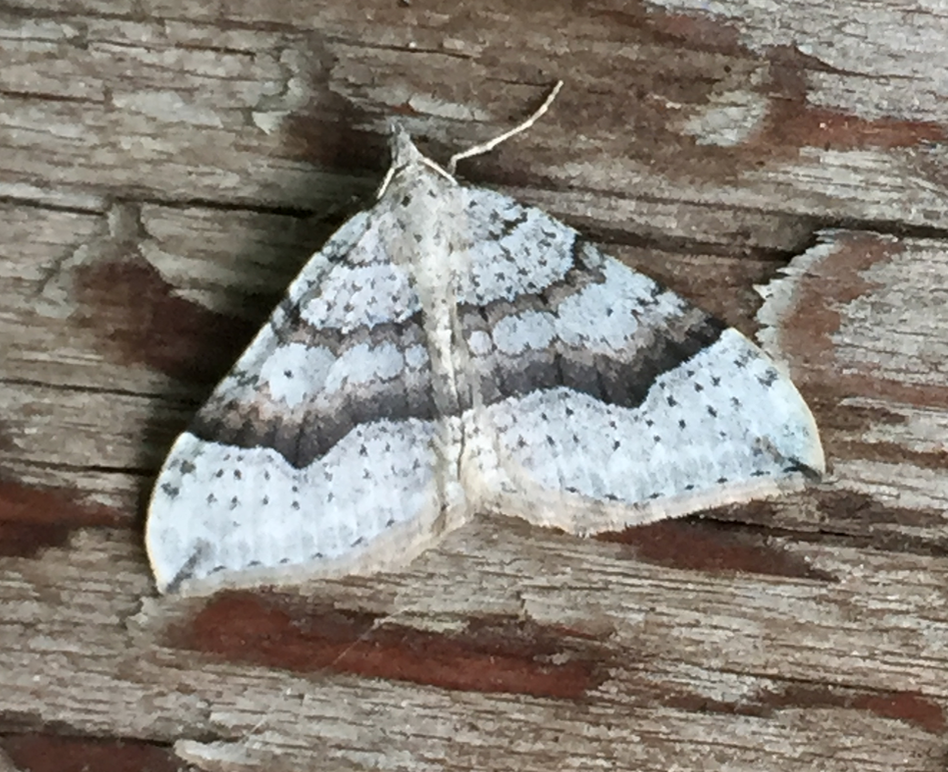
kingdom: Animalia
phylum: Arthropoda
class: Insecta
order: Lepidoptera
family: Geometridae
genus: Zenophleps
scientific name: Zenophleps alpinata
